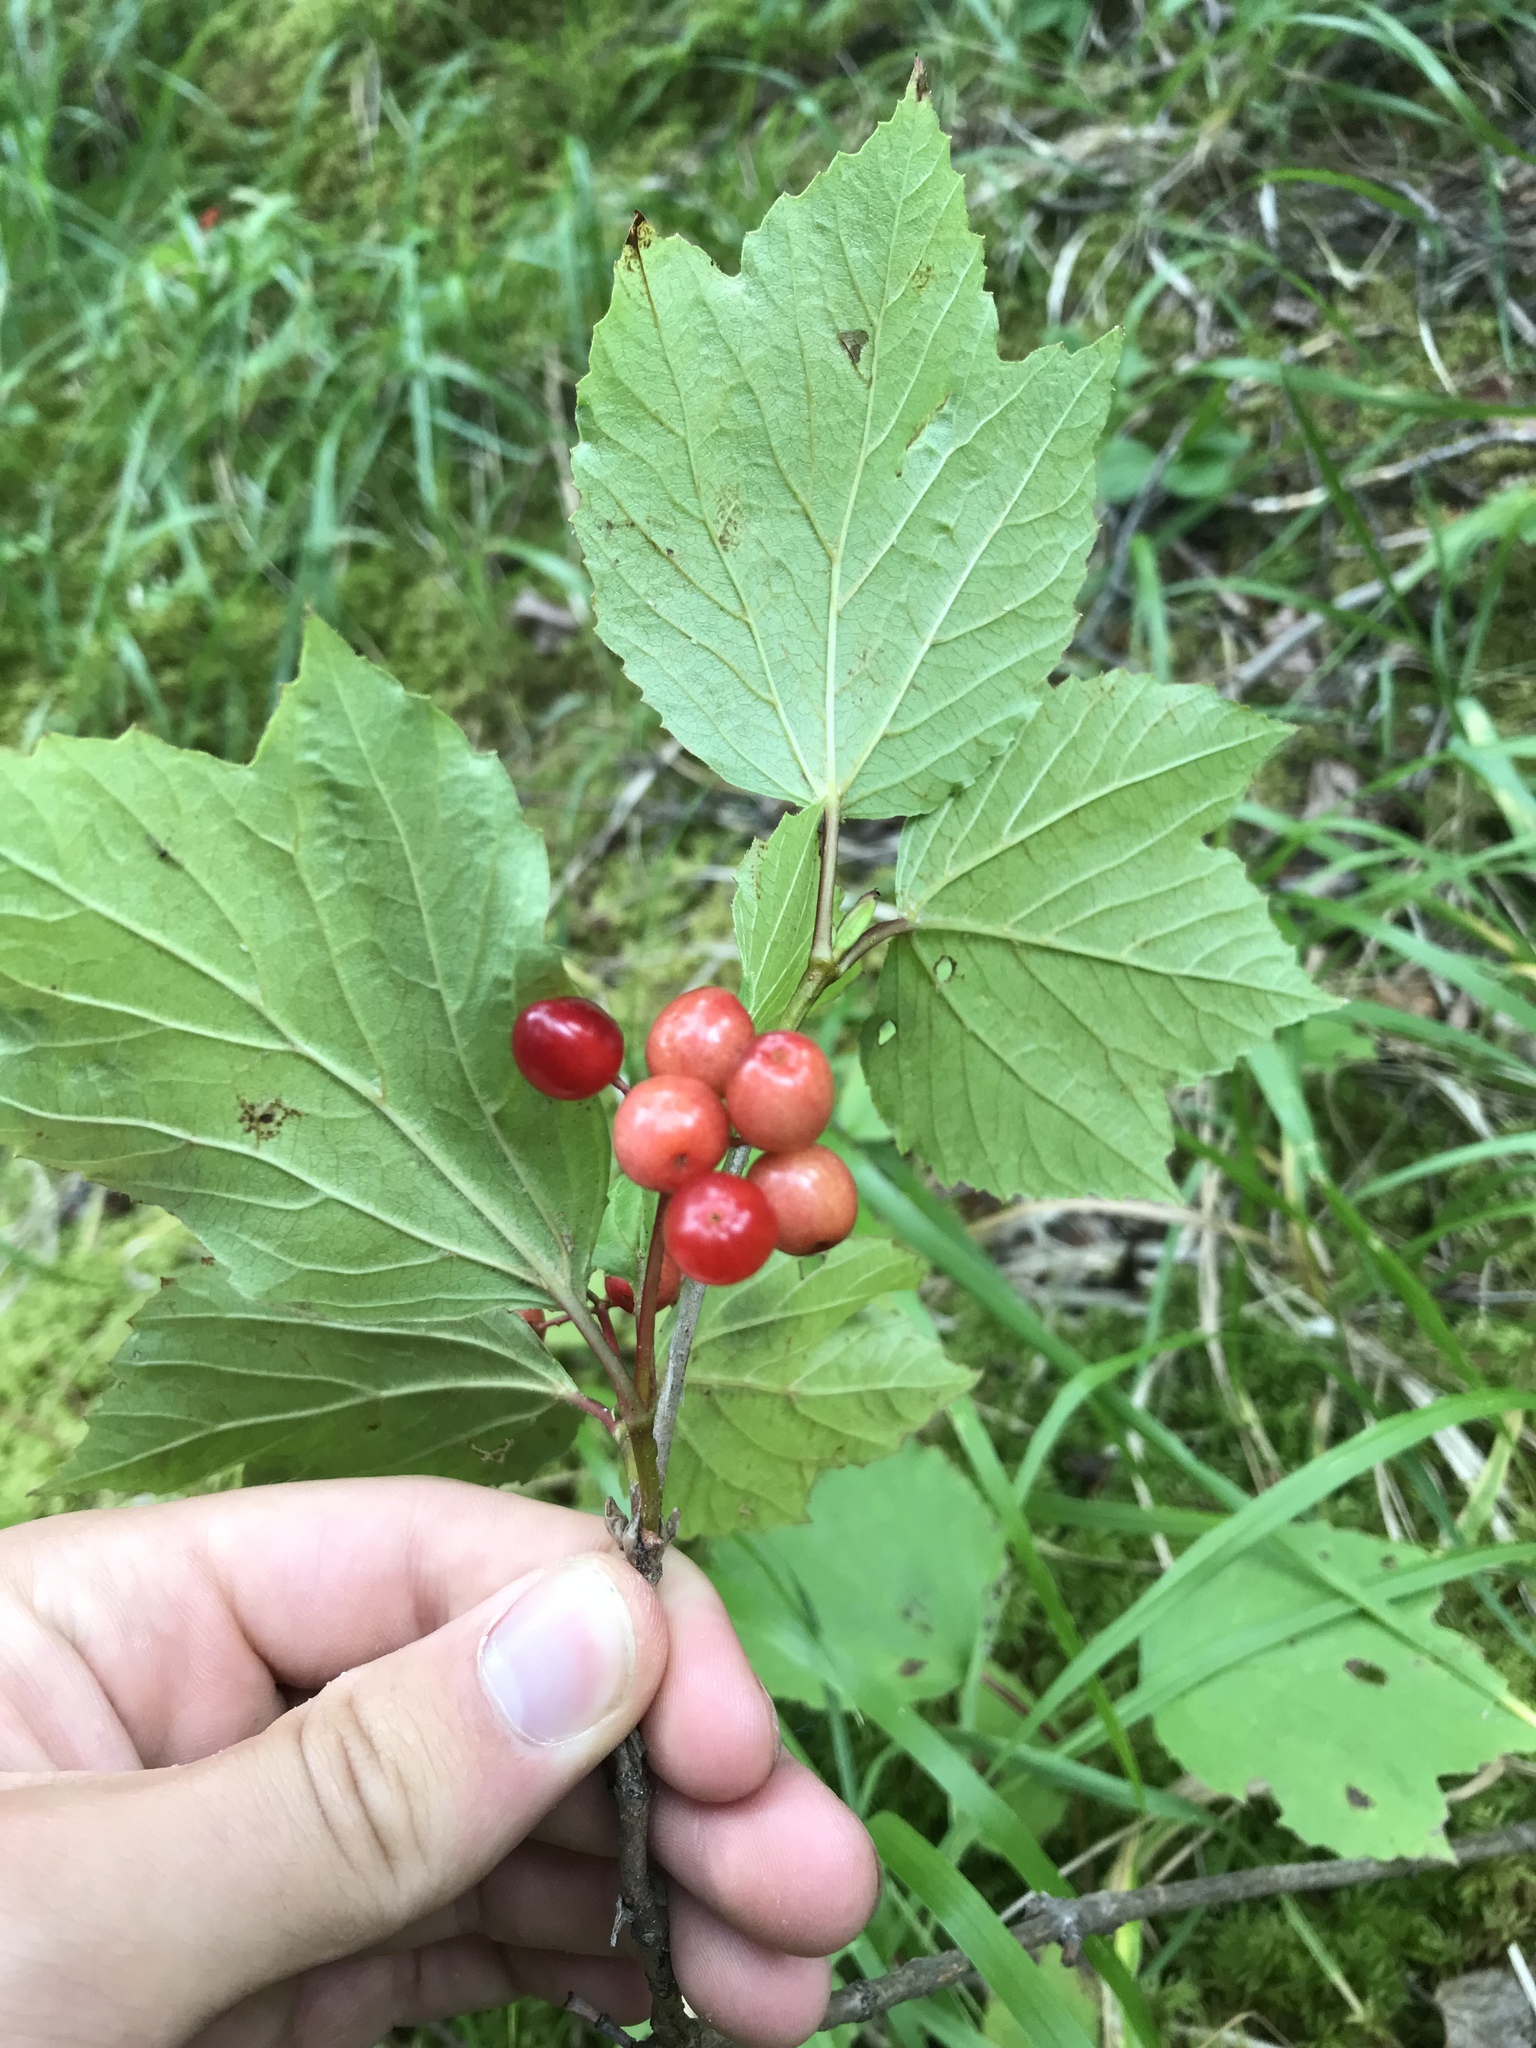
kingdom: Plantae
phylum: Tracheophyta
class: Magnoliopsida
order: Dipsacales
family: Viburnaceae
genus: Viburnum
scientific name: Viburnum edule
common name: Mooseberry
